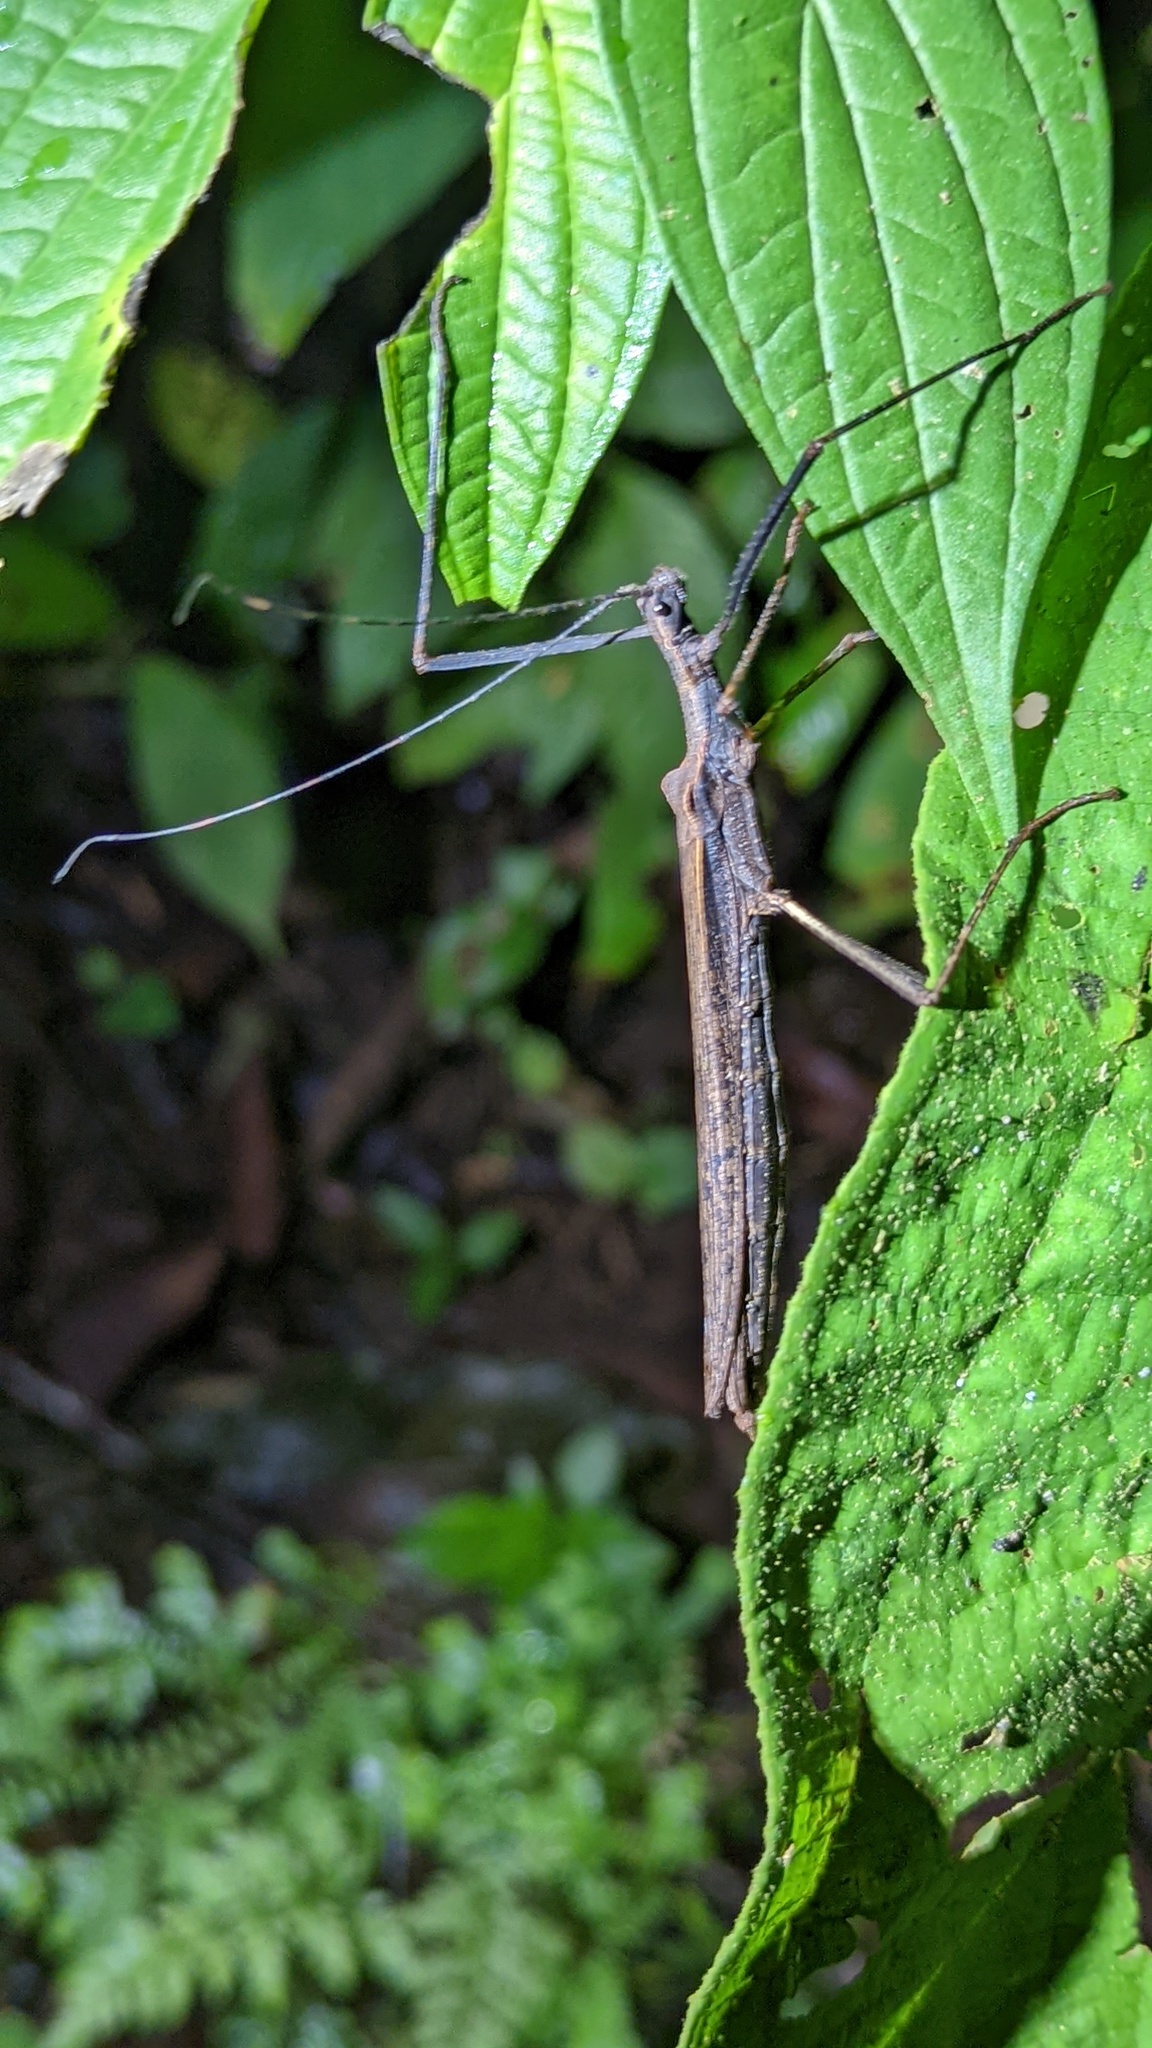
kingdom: Animalia
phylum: Arthropoda
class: Insecta
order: Phasmida
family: Pseudophasmatidae
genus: Pseudophasma
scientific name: Pseudophasma unicolor
